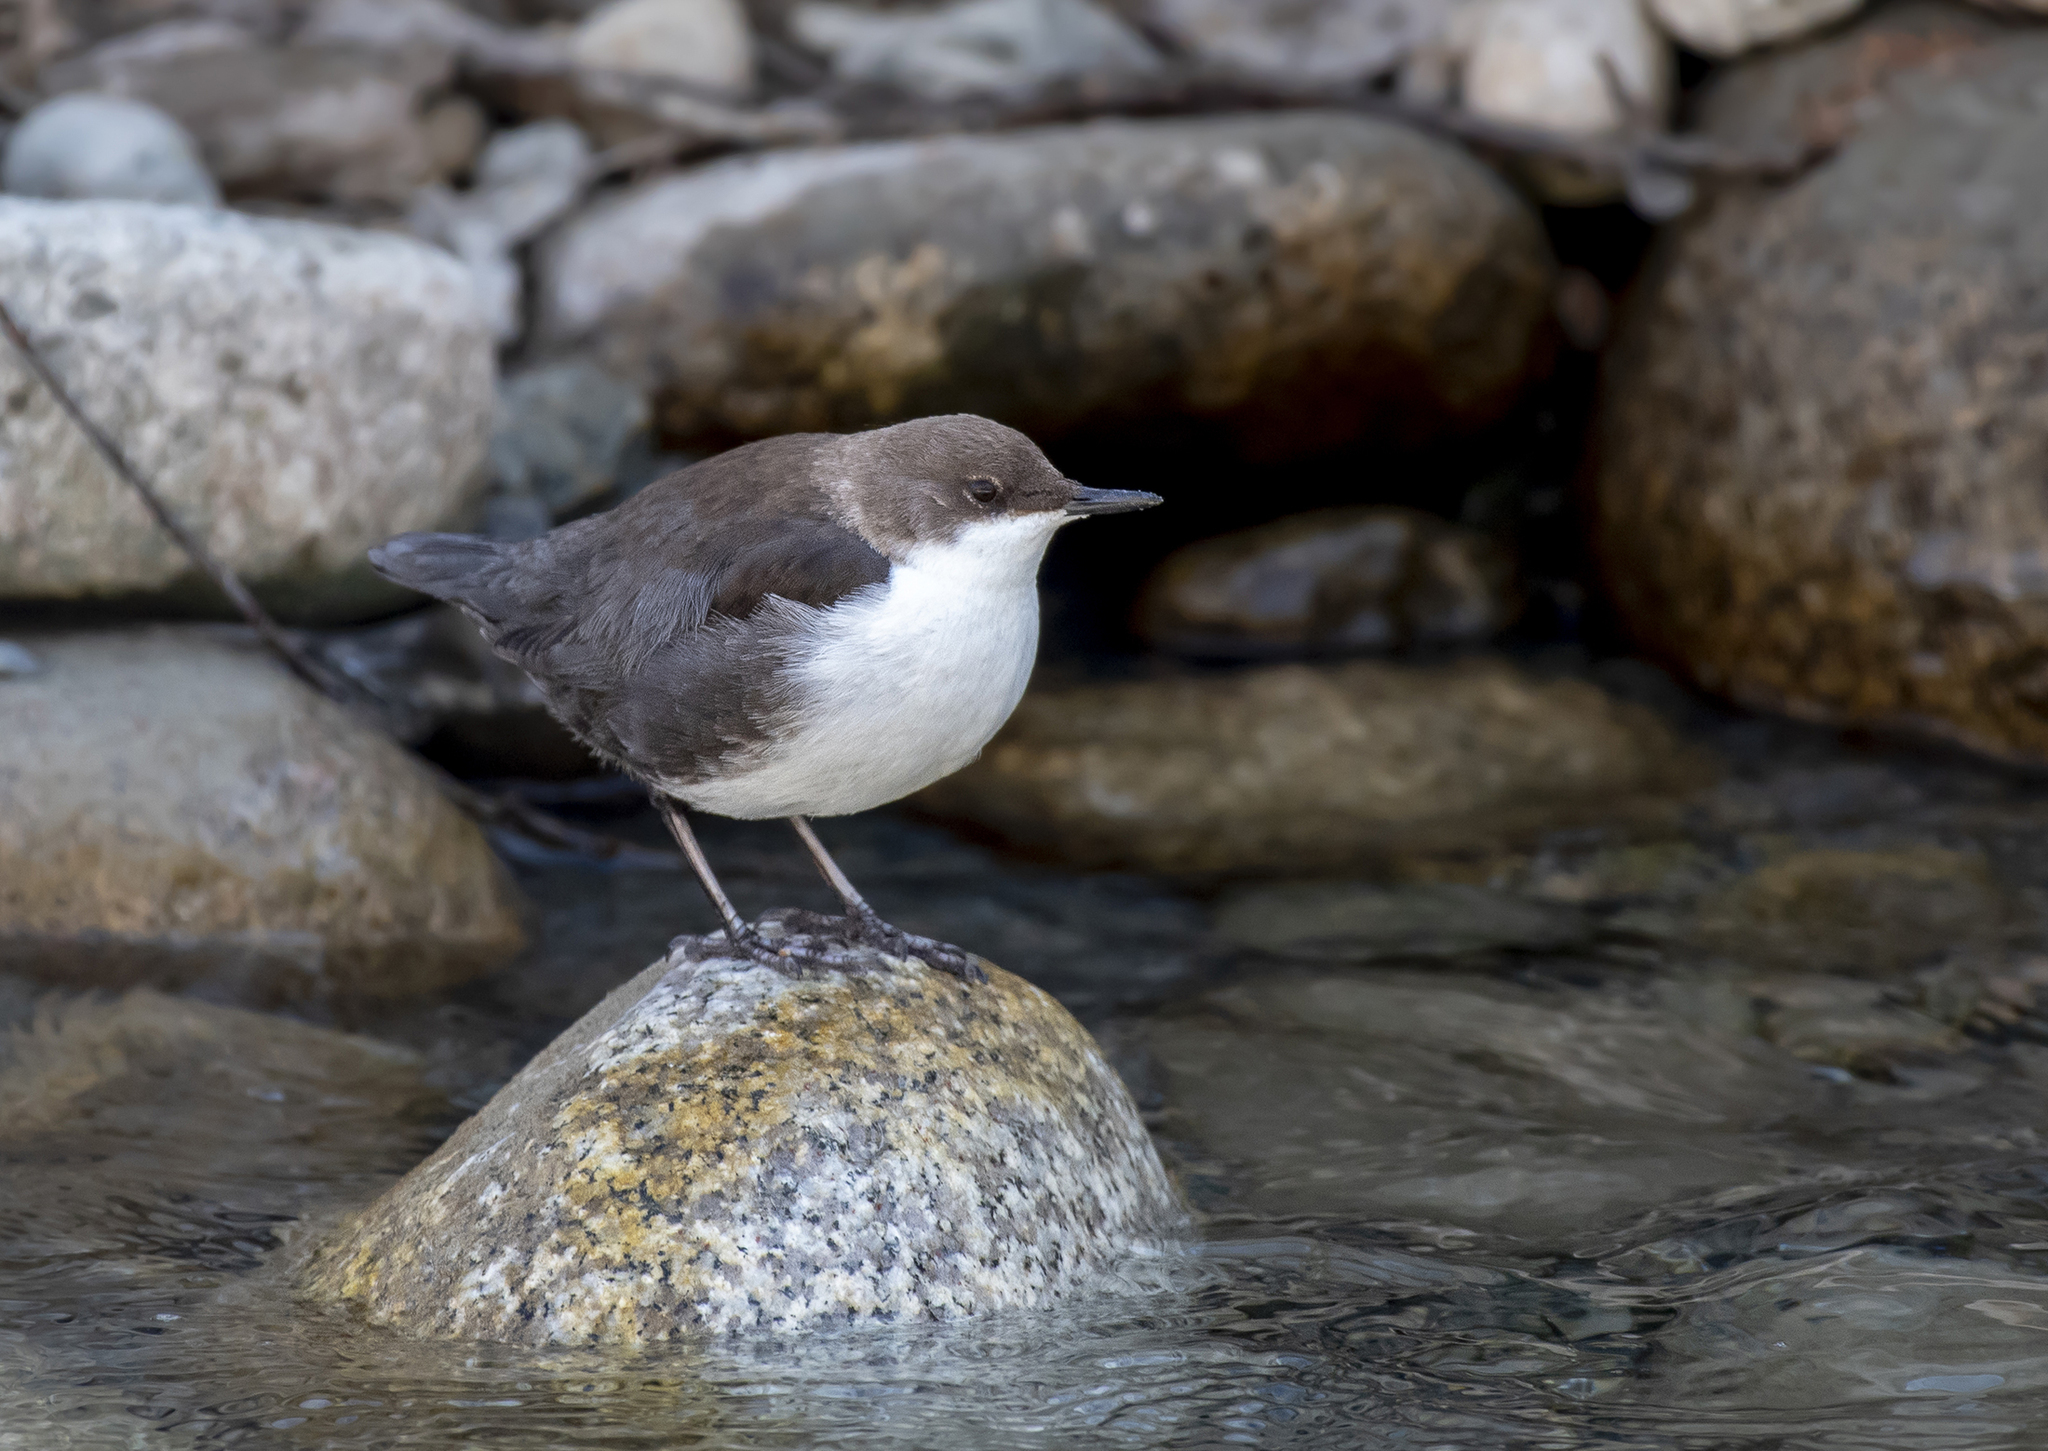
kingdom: Animalia
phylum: Chordata
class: Aves
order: Passeriformes
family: Cinclidae
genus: Cinclus
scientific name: Cinclus cinclus
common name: White-throated dipper
